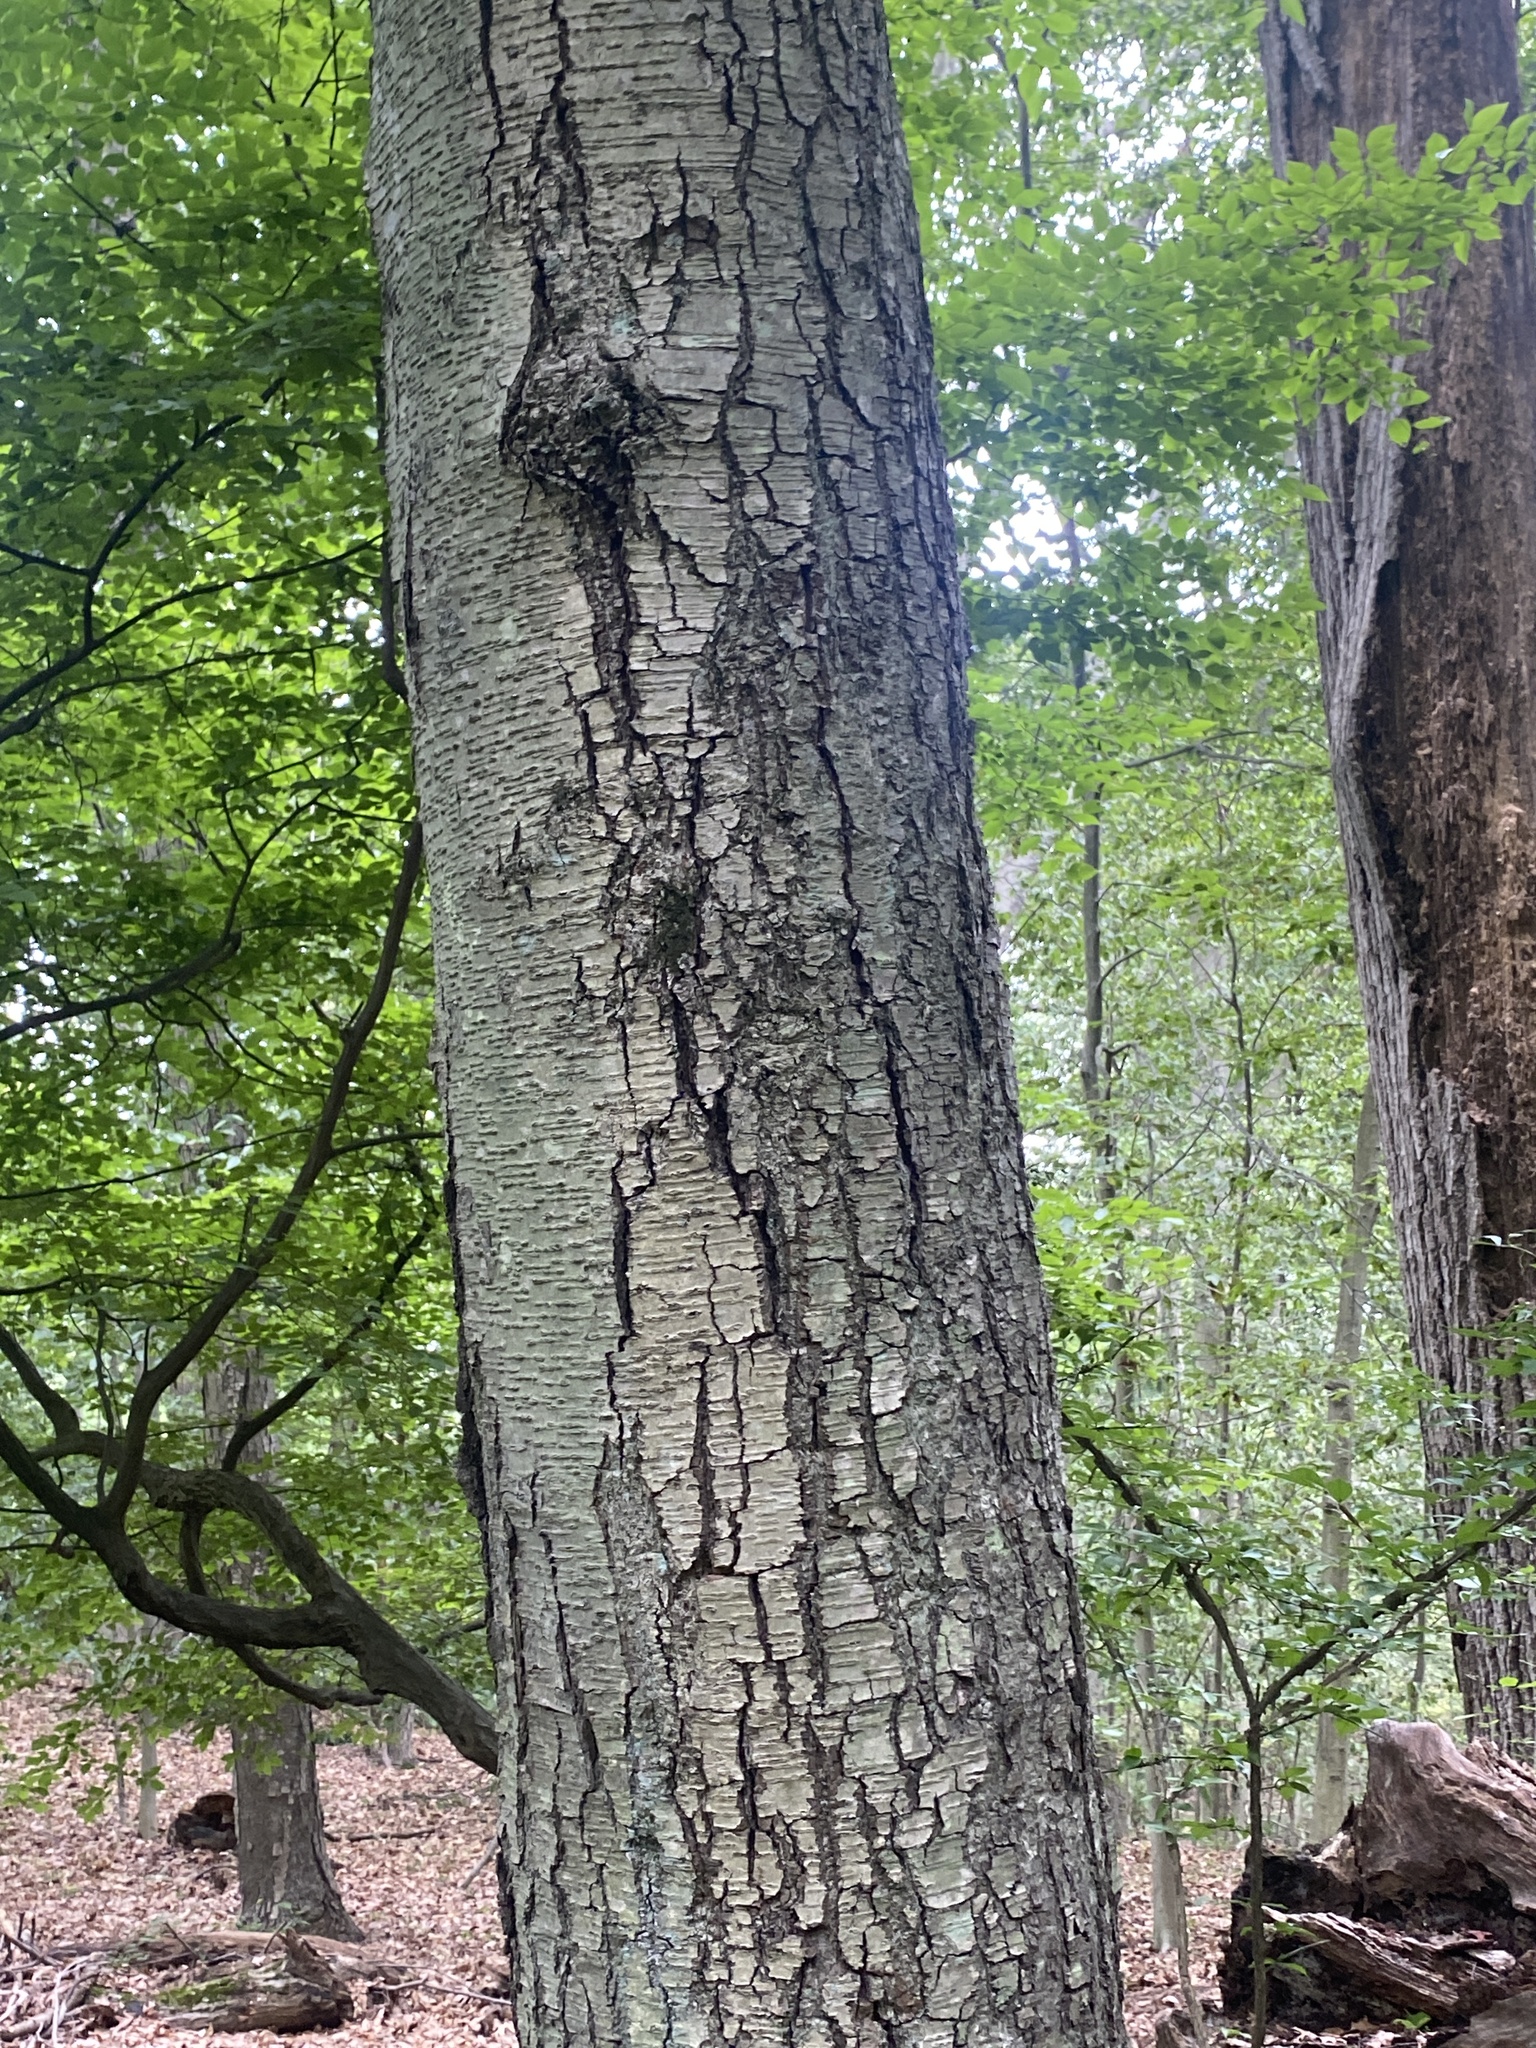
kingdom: Plantae
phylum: Tracheophyta
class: Magnoliopsida
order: Fagales
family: Betulaceae
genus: Betula
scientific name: Betula lenta
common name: Black birch
